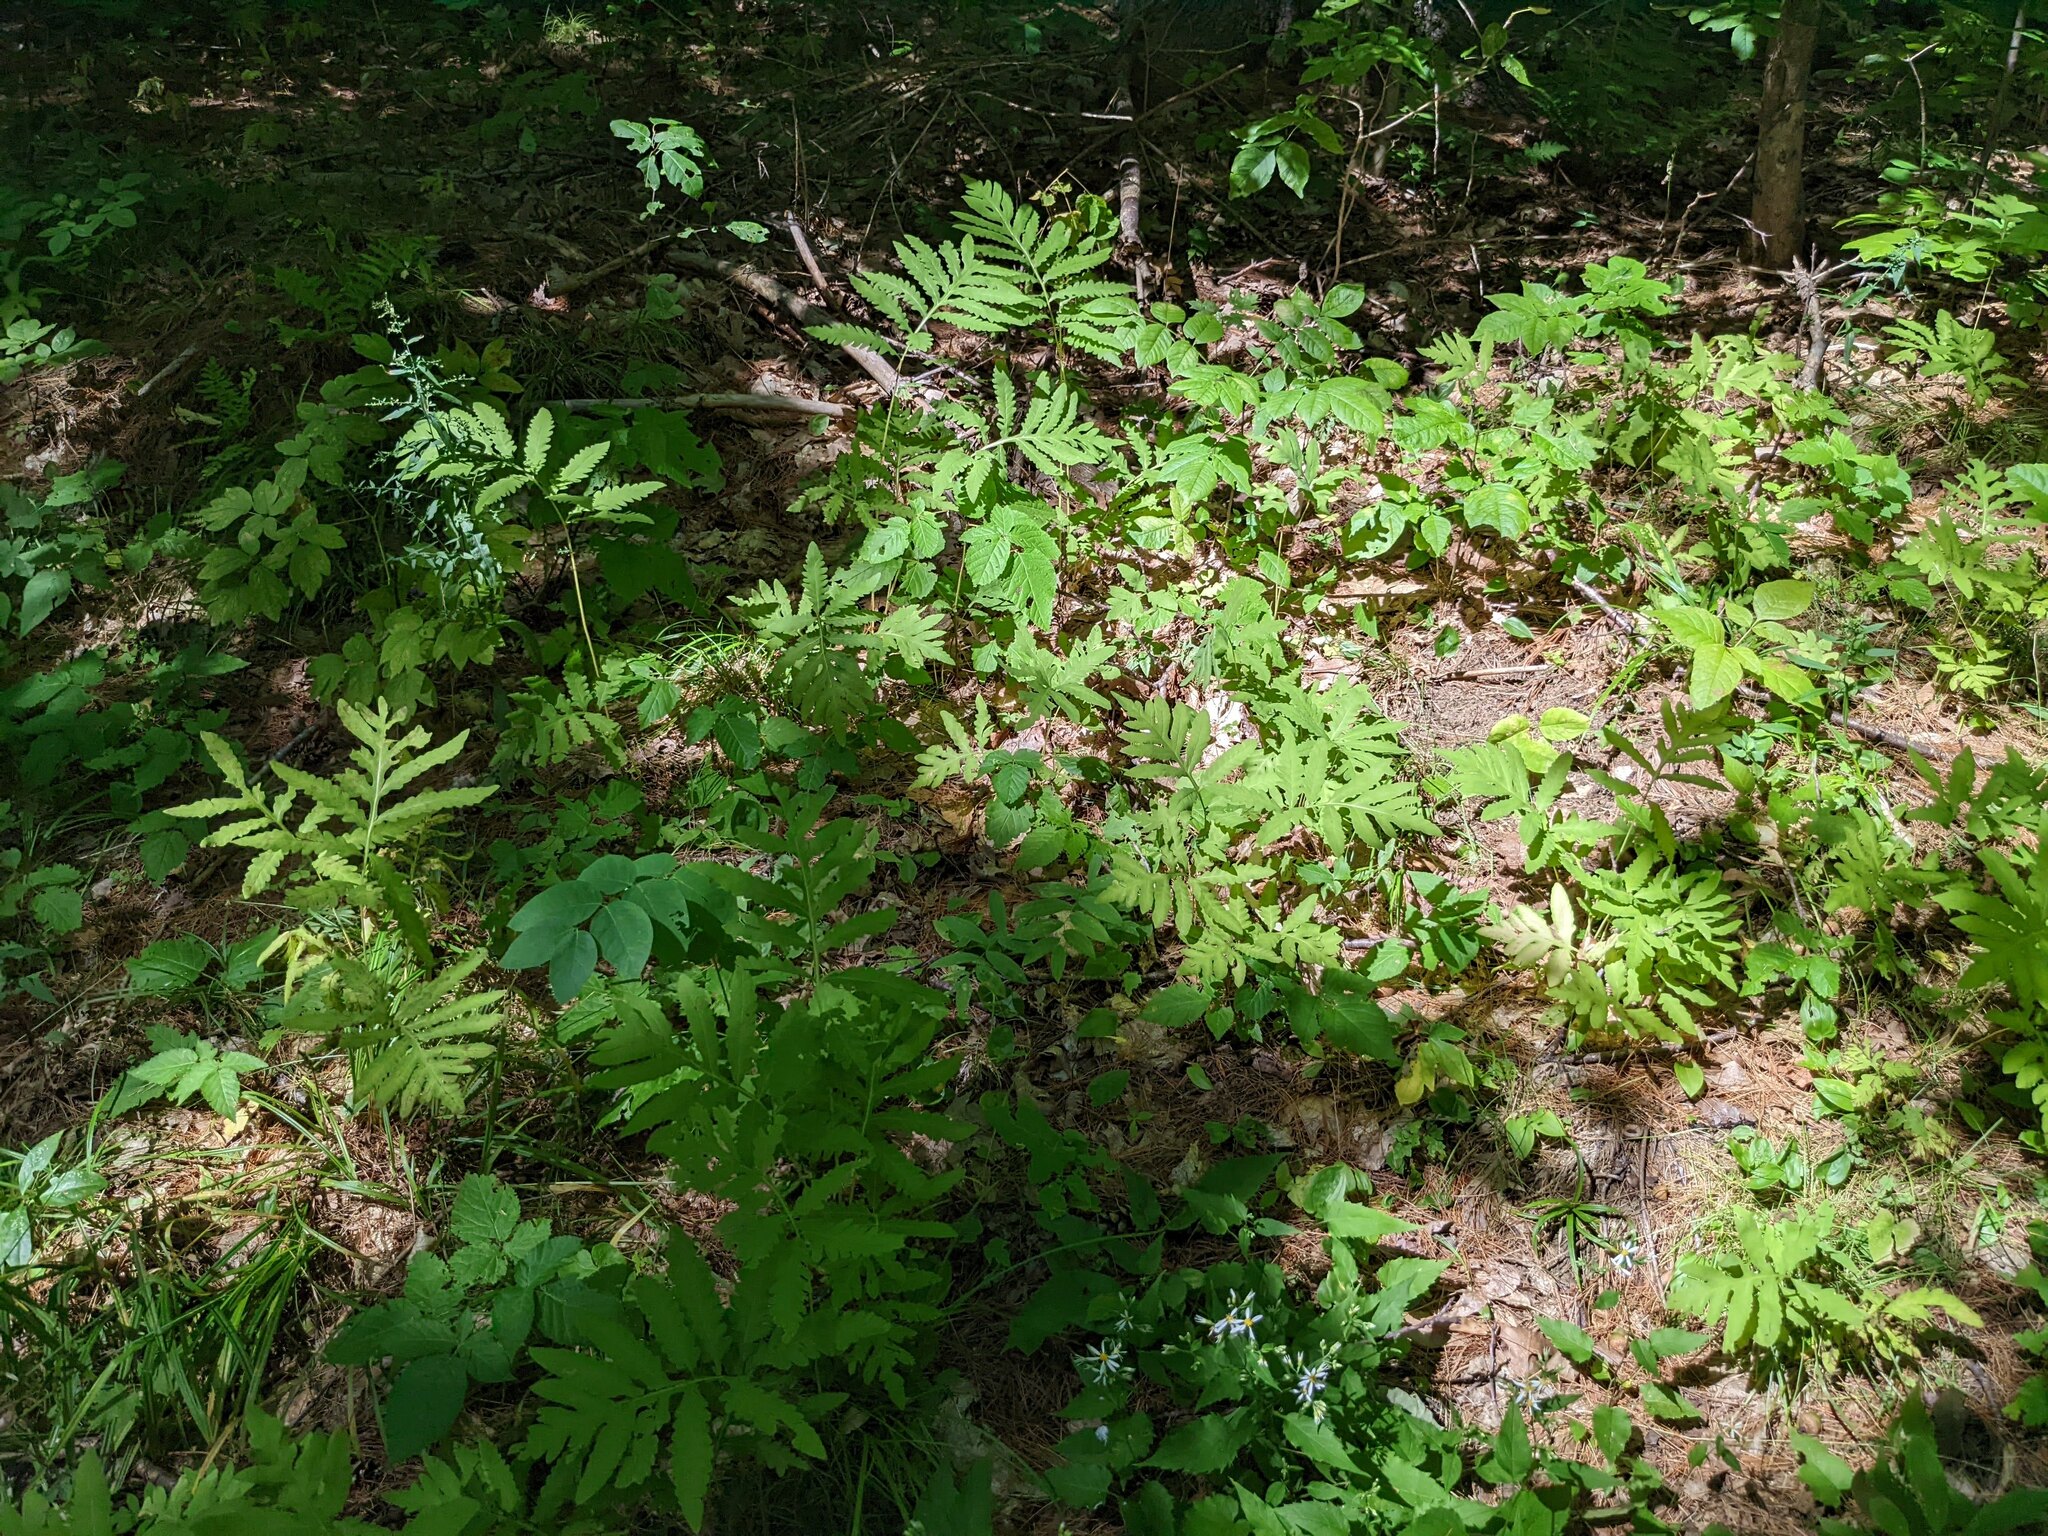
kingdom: Plantae
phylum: Tracheophyta
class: Polypodiopsida
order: Polypodiales
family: Onocleaceae
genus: Onoclea
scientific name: Onoclea sensibilis
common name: Sensitive fern
